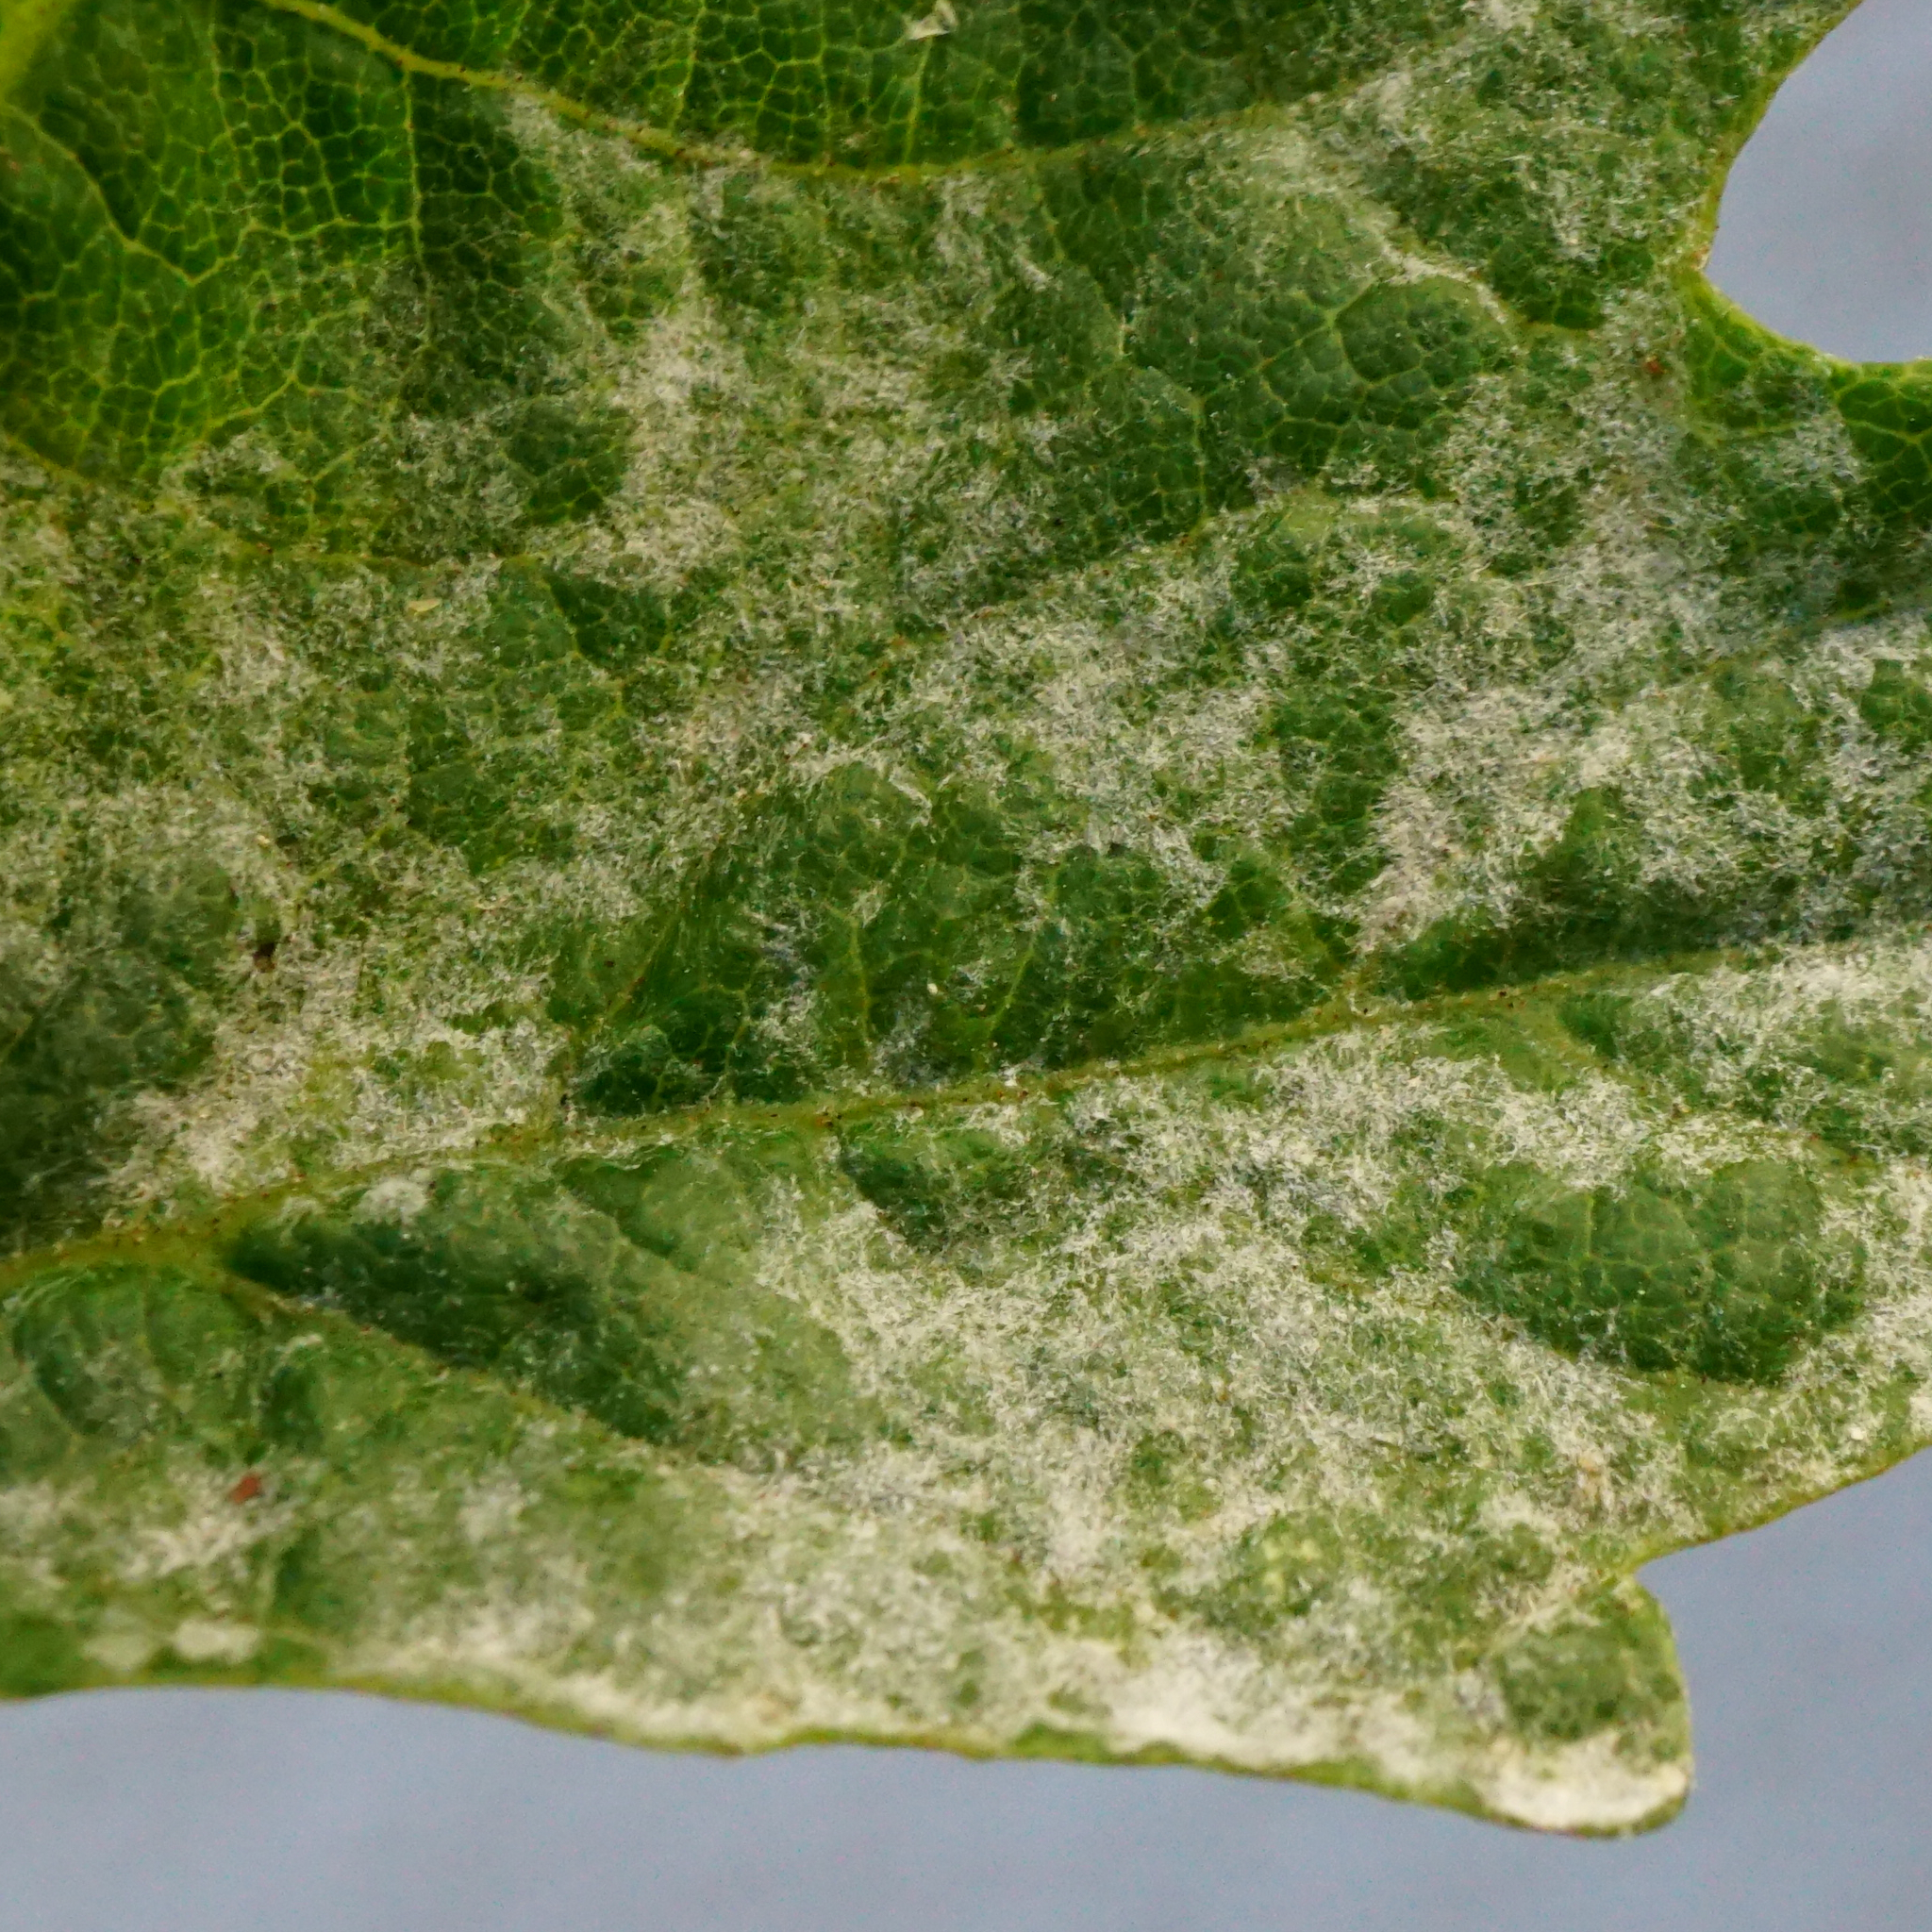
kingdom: Fungi
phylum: Ascomycota
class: Leotiomycetes
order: Helotiales
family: Erysiphaceae
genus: Sawadaea
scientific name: Sawadaea bicornis
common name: Maple mildew
